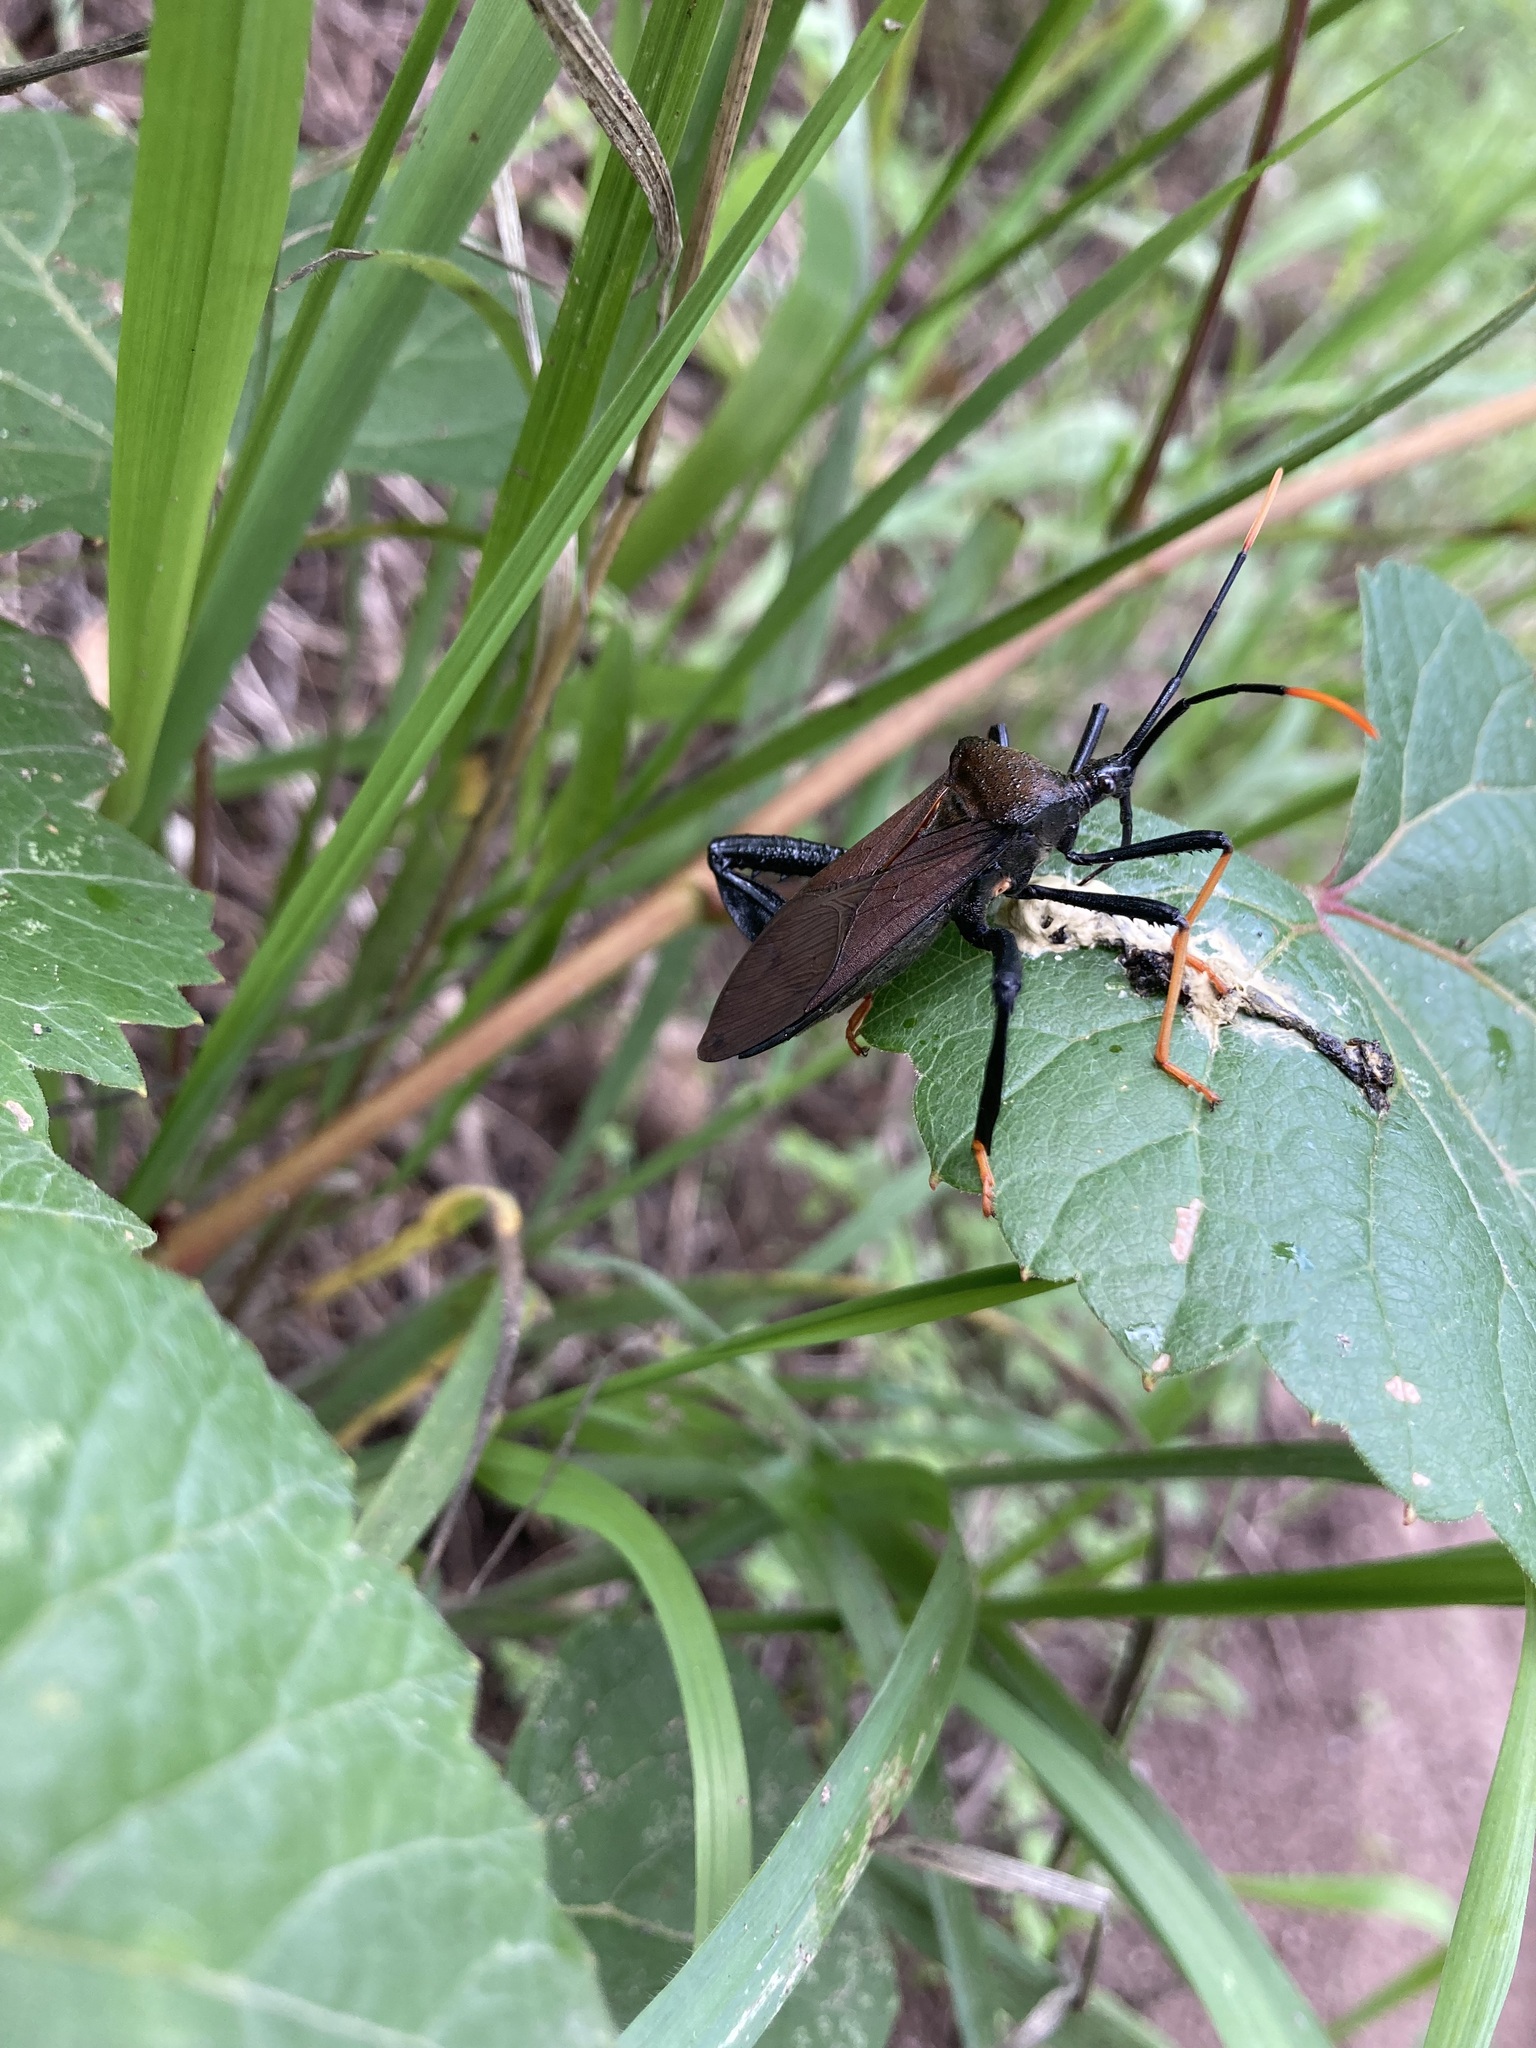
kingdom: Animalia
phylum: Arthropoda
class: Insecta
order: Hemiptera
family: Coreidae
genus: Acanthocephala
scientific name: Acanthocephala thomasi
